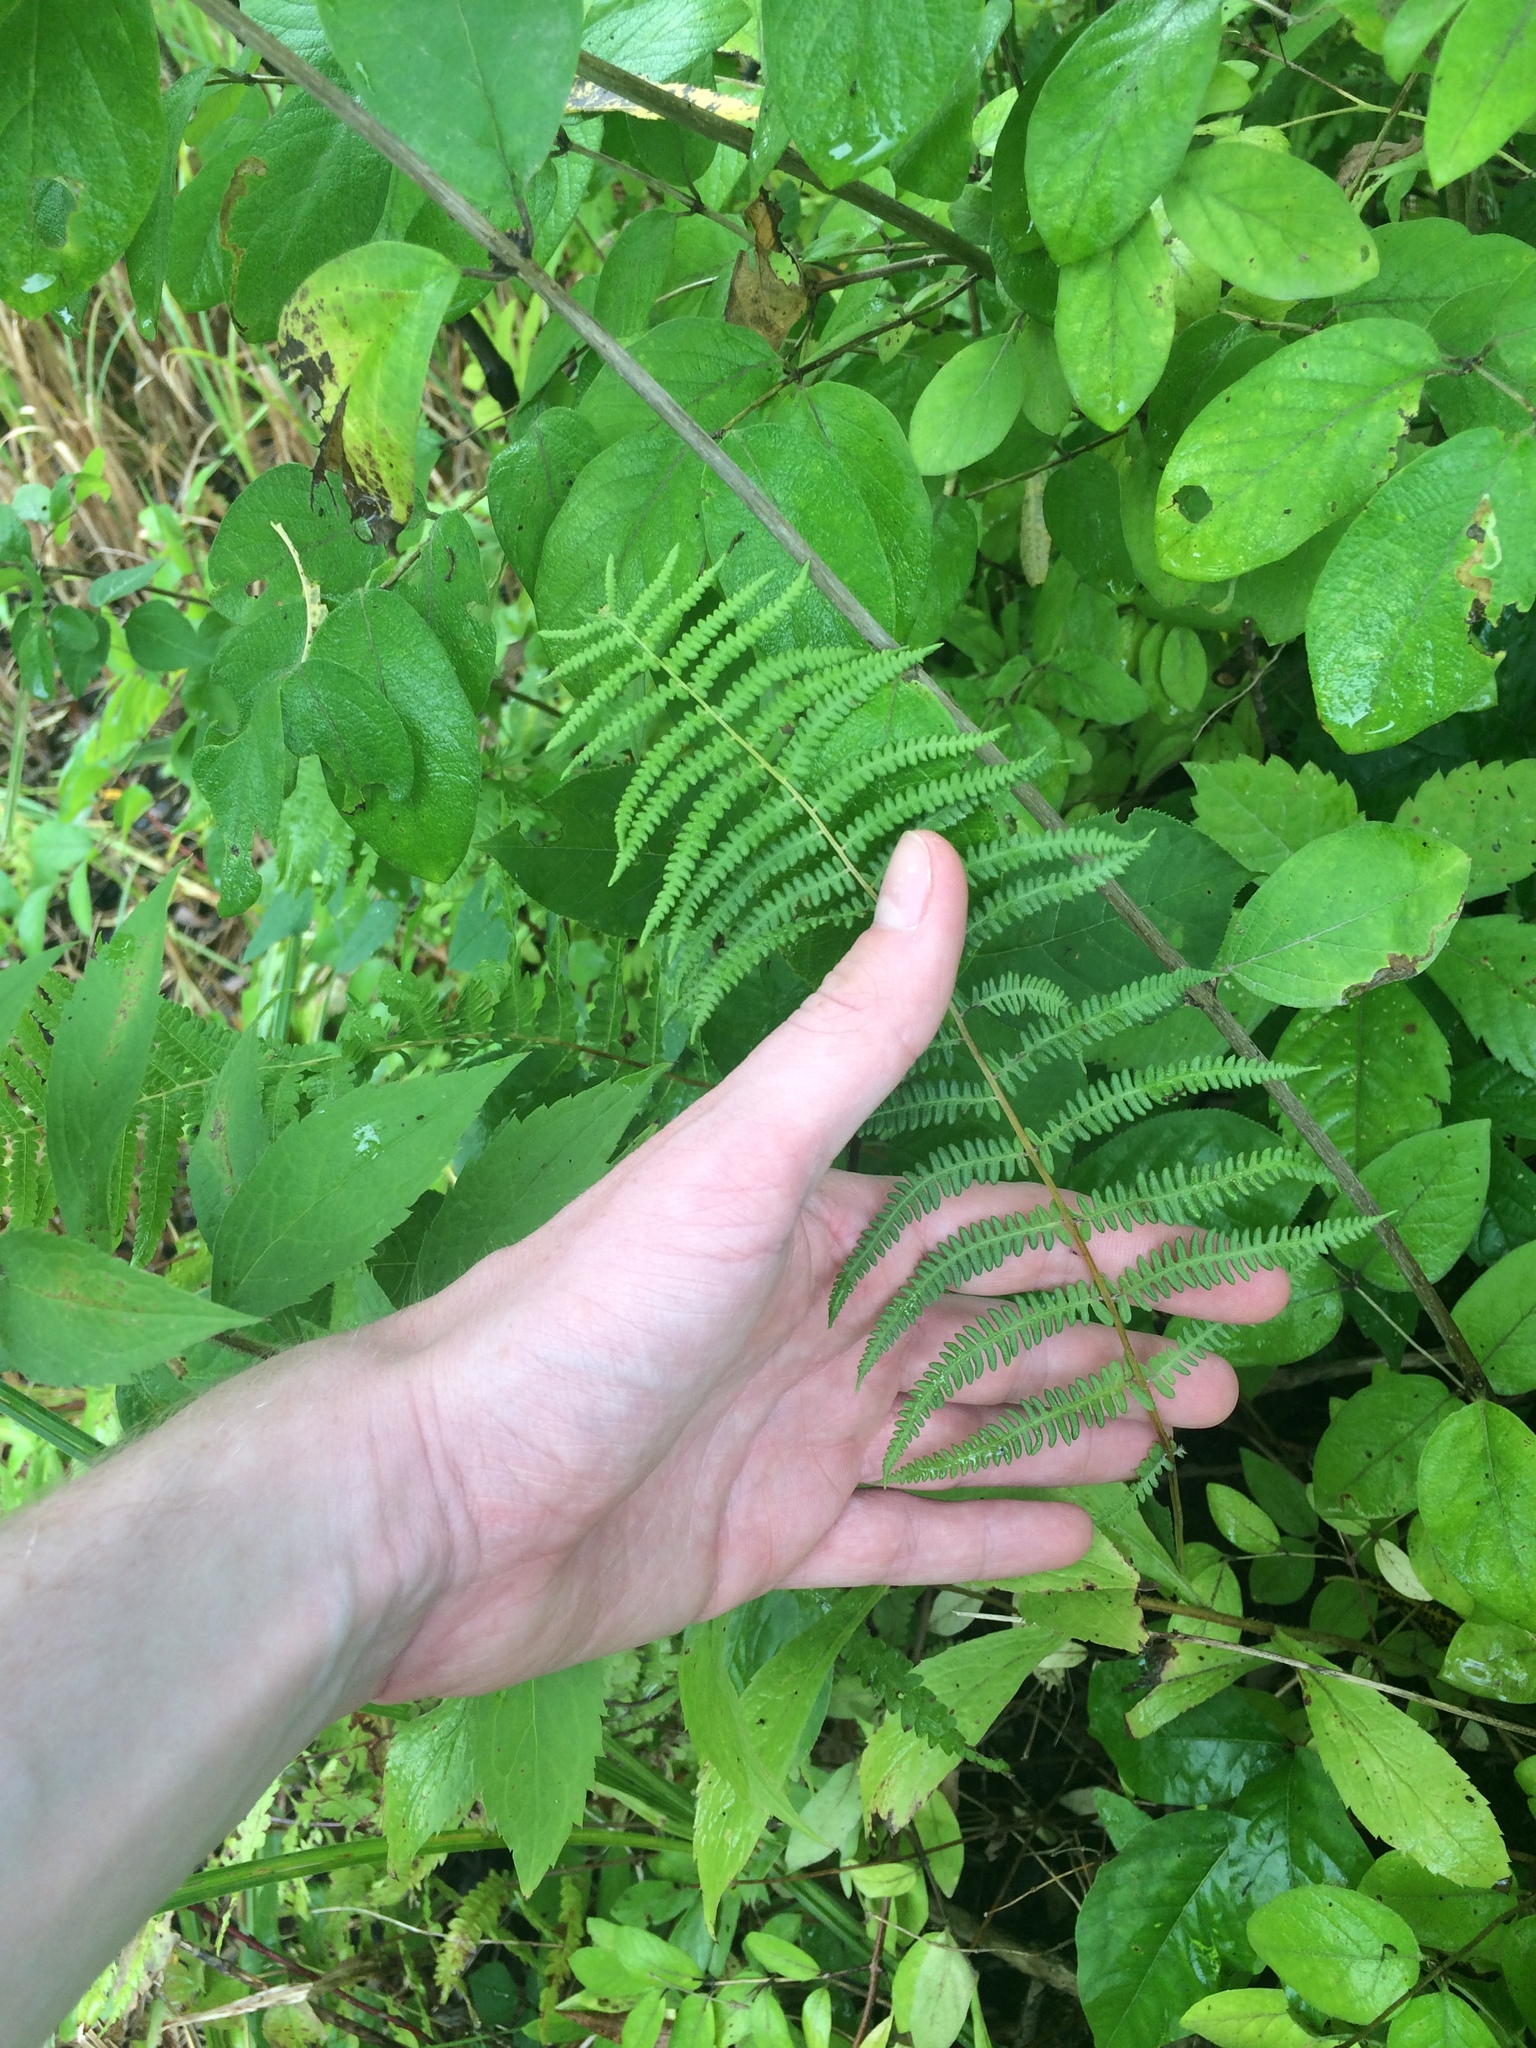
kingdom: Plantae
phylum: Tracheophyta
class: Polypodiopsida
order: Polypodiales
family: Thelypteridaceae
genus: Thelypteris
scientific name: Thelypteris palustris
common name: Marsh fern
